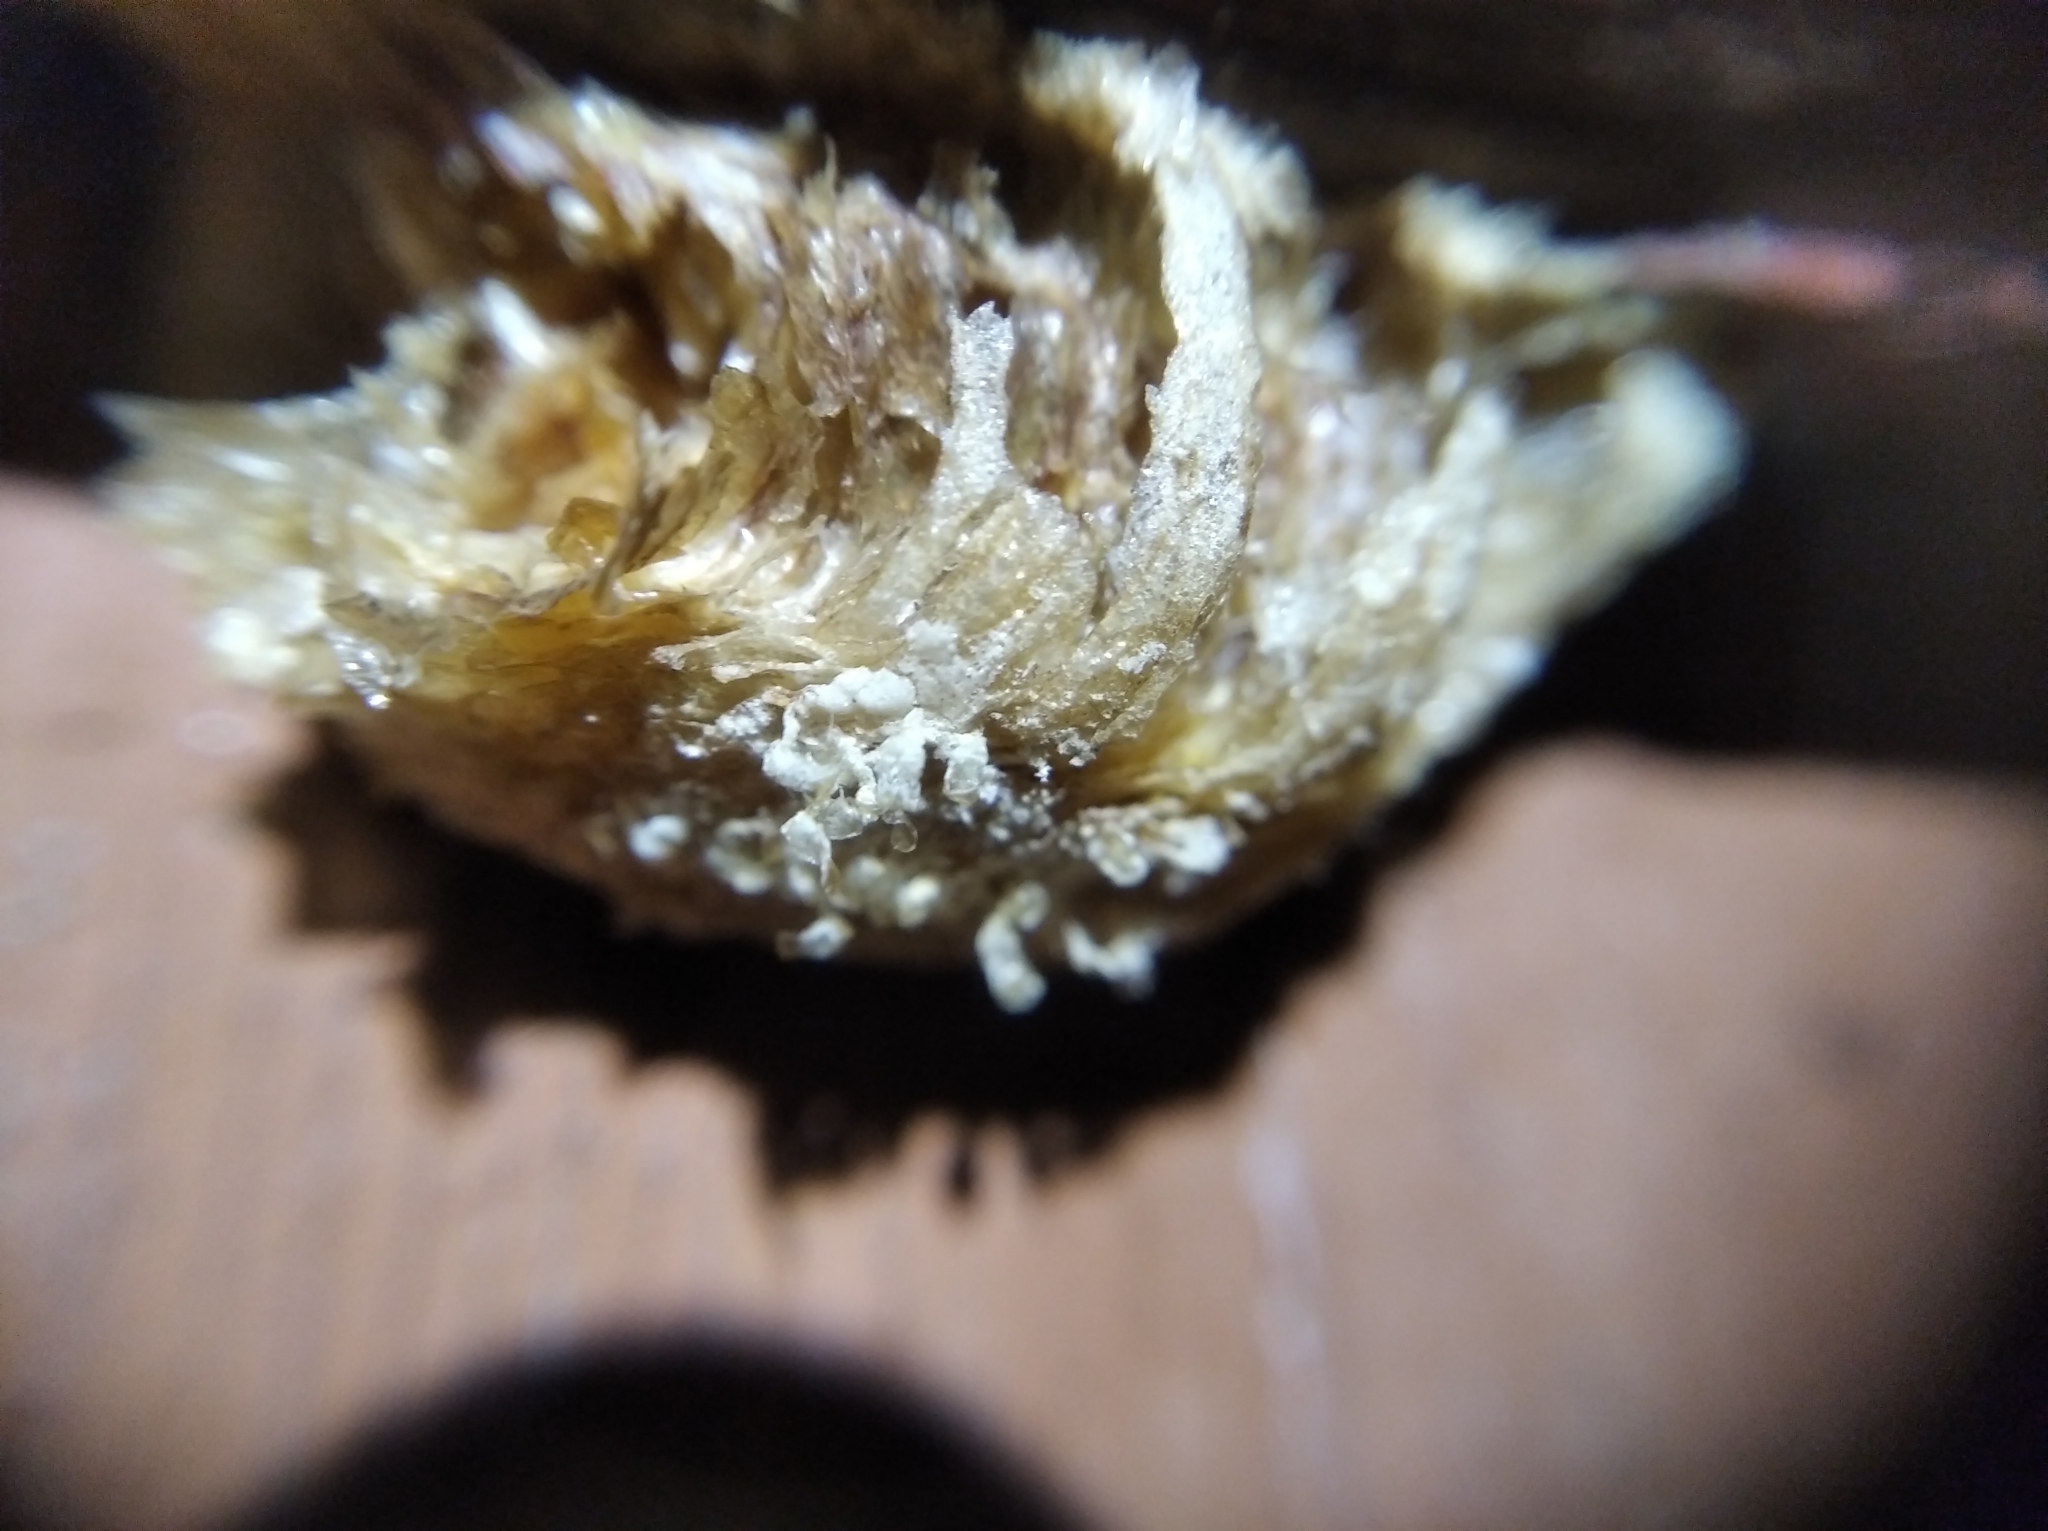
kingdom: Animalia
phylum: Arthropoda
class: Insecta
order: Mantodea
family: Mantidae
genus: Mantis
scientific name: Mantis religiosa
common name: Praying mantis
